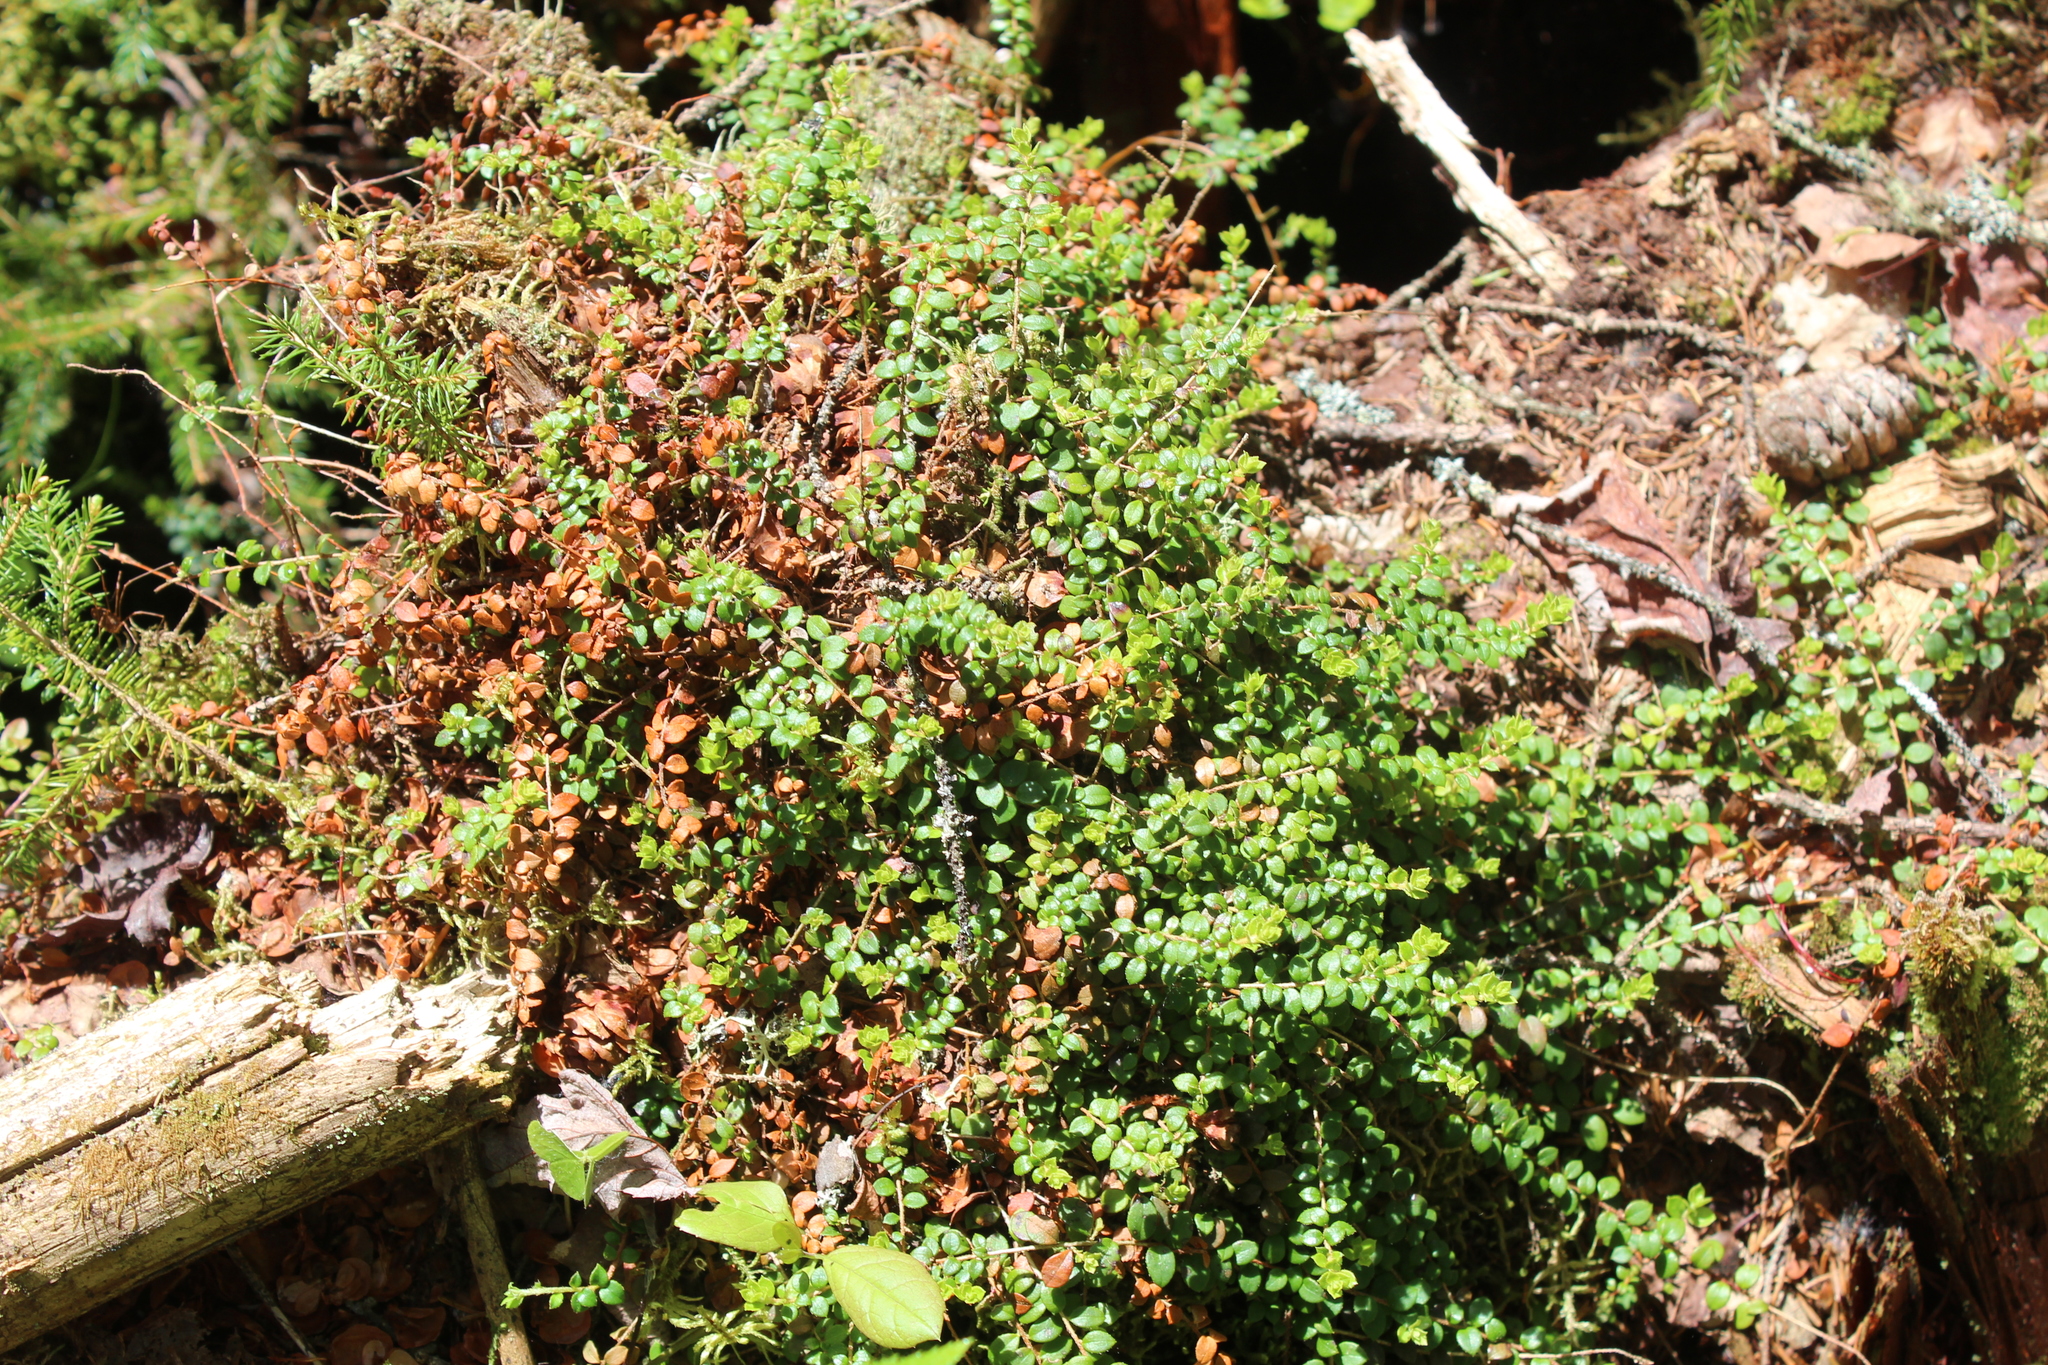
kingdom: Plantae
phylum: Tracheophyta
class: Magnoliopsida
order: Ericales
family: Ericaceae
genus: Gaultheria
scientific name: Gaultheria hispidula
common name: Cancer wintergreen
